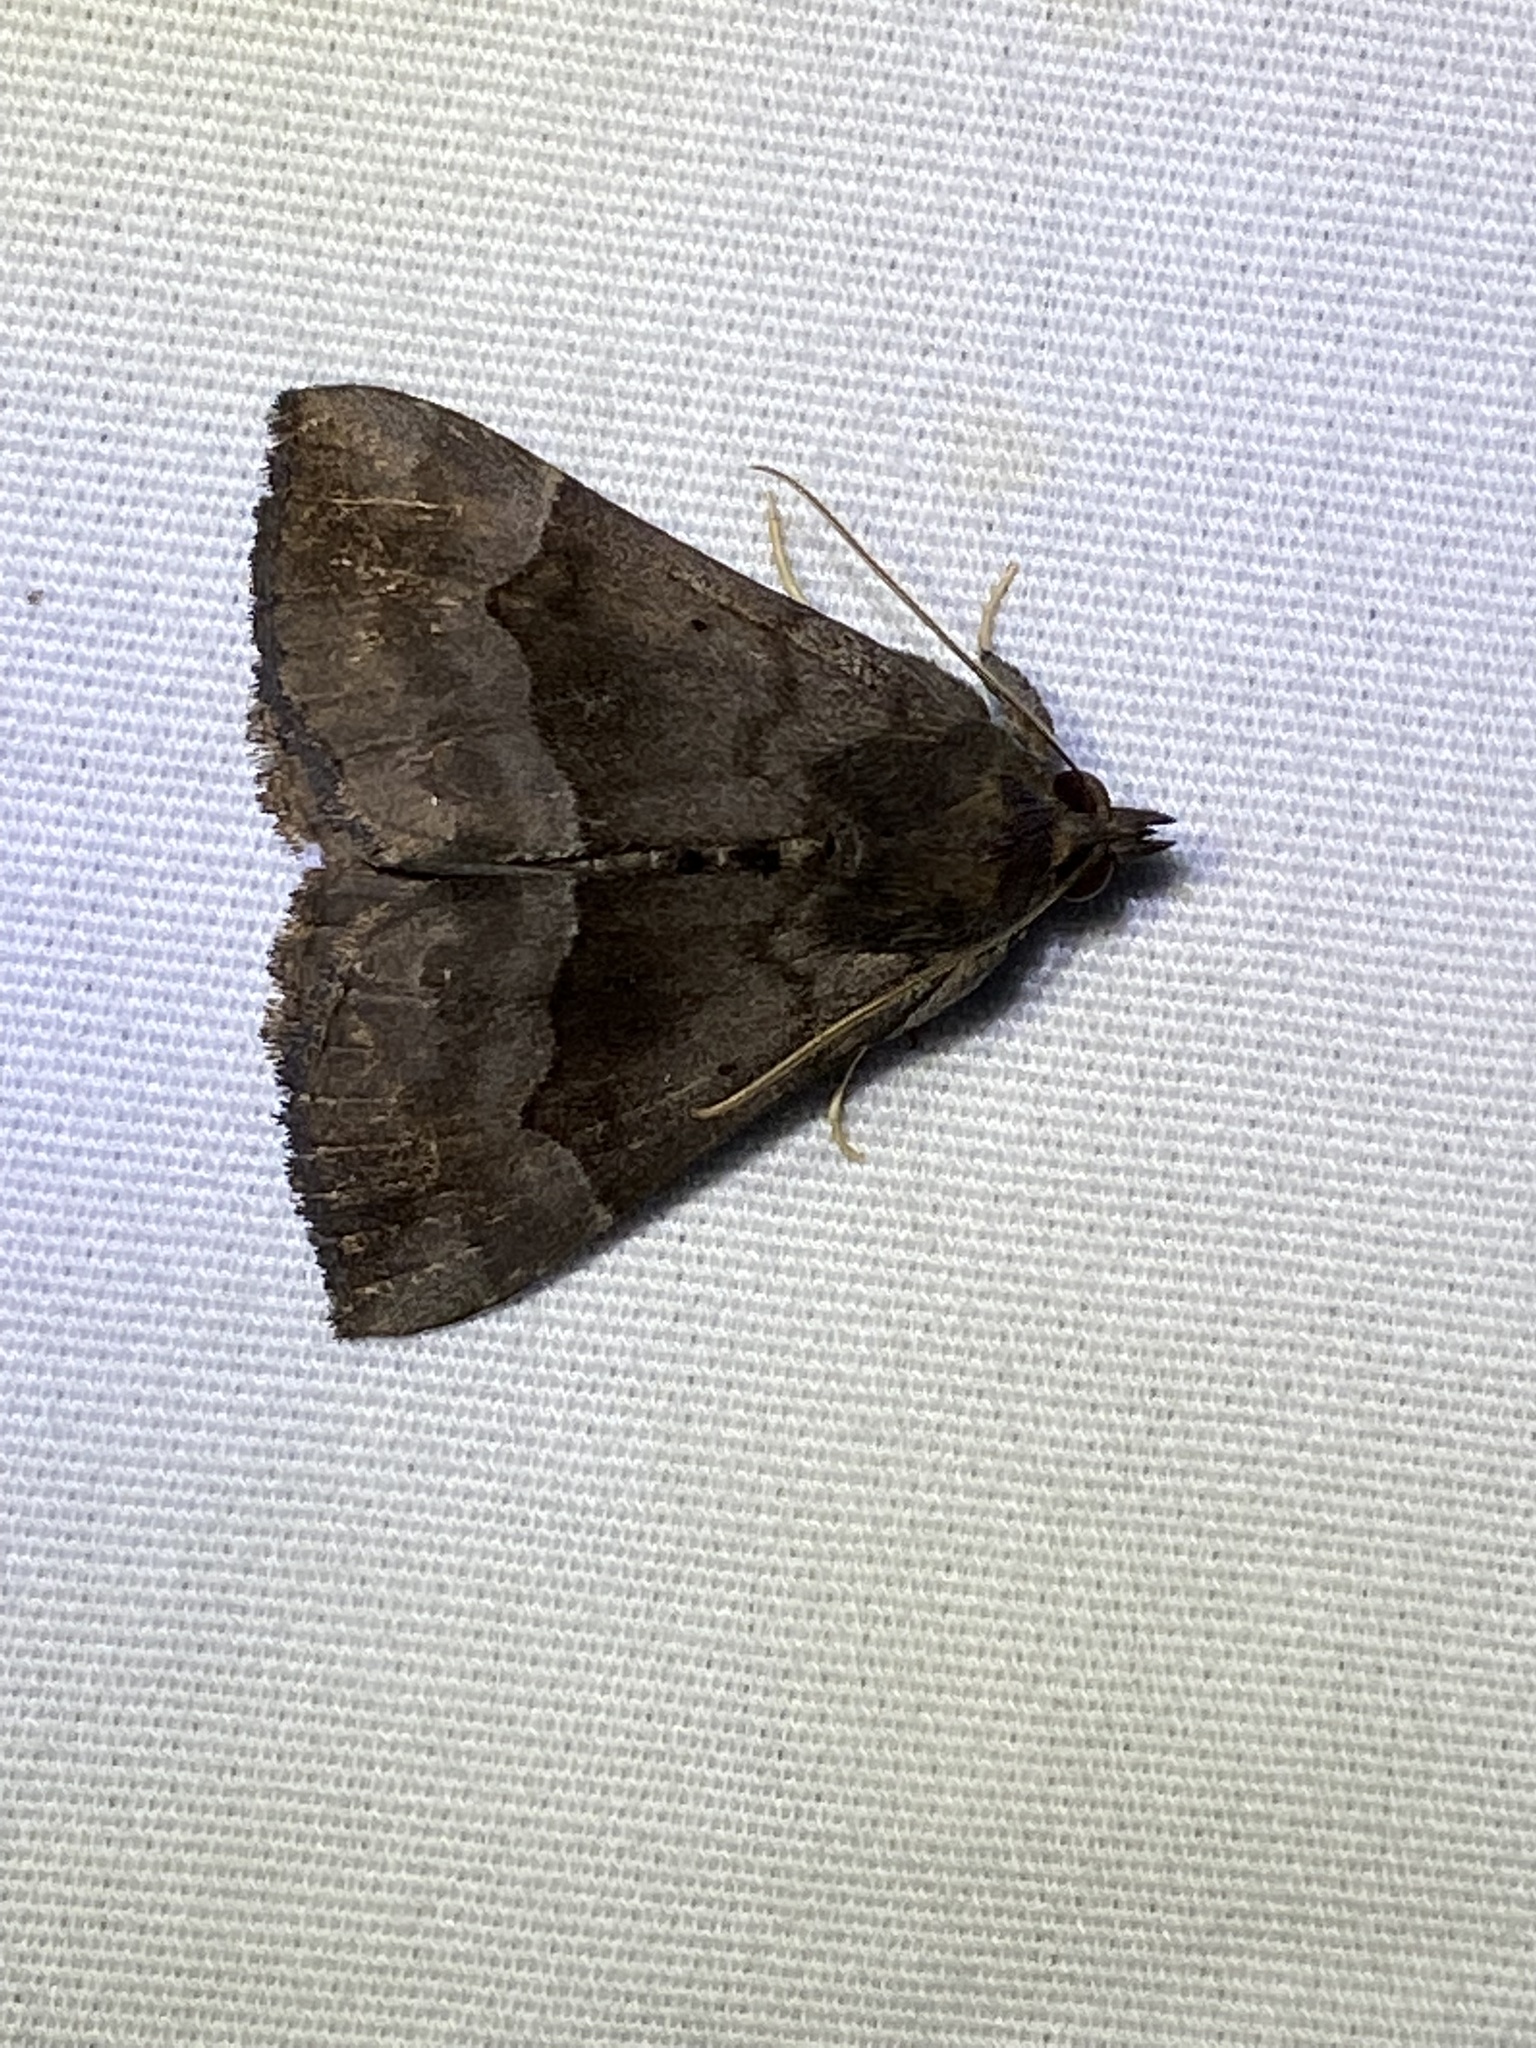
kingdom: Animalia
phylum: Arthropoda
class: Insecta
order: Lepidoptera
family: Erebidae
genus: Hypena
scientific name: Hypena madefactalis
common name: Gray-edged snout
